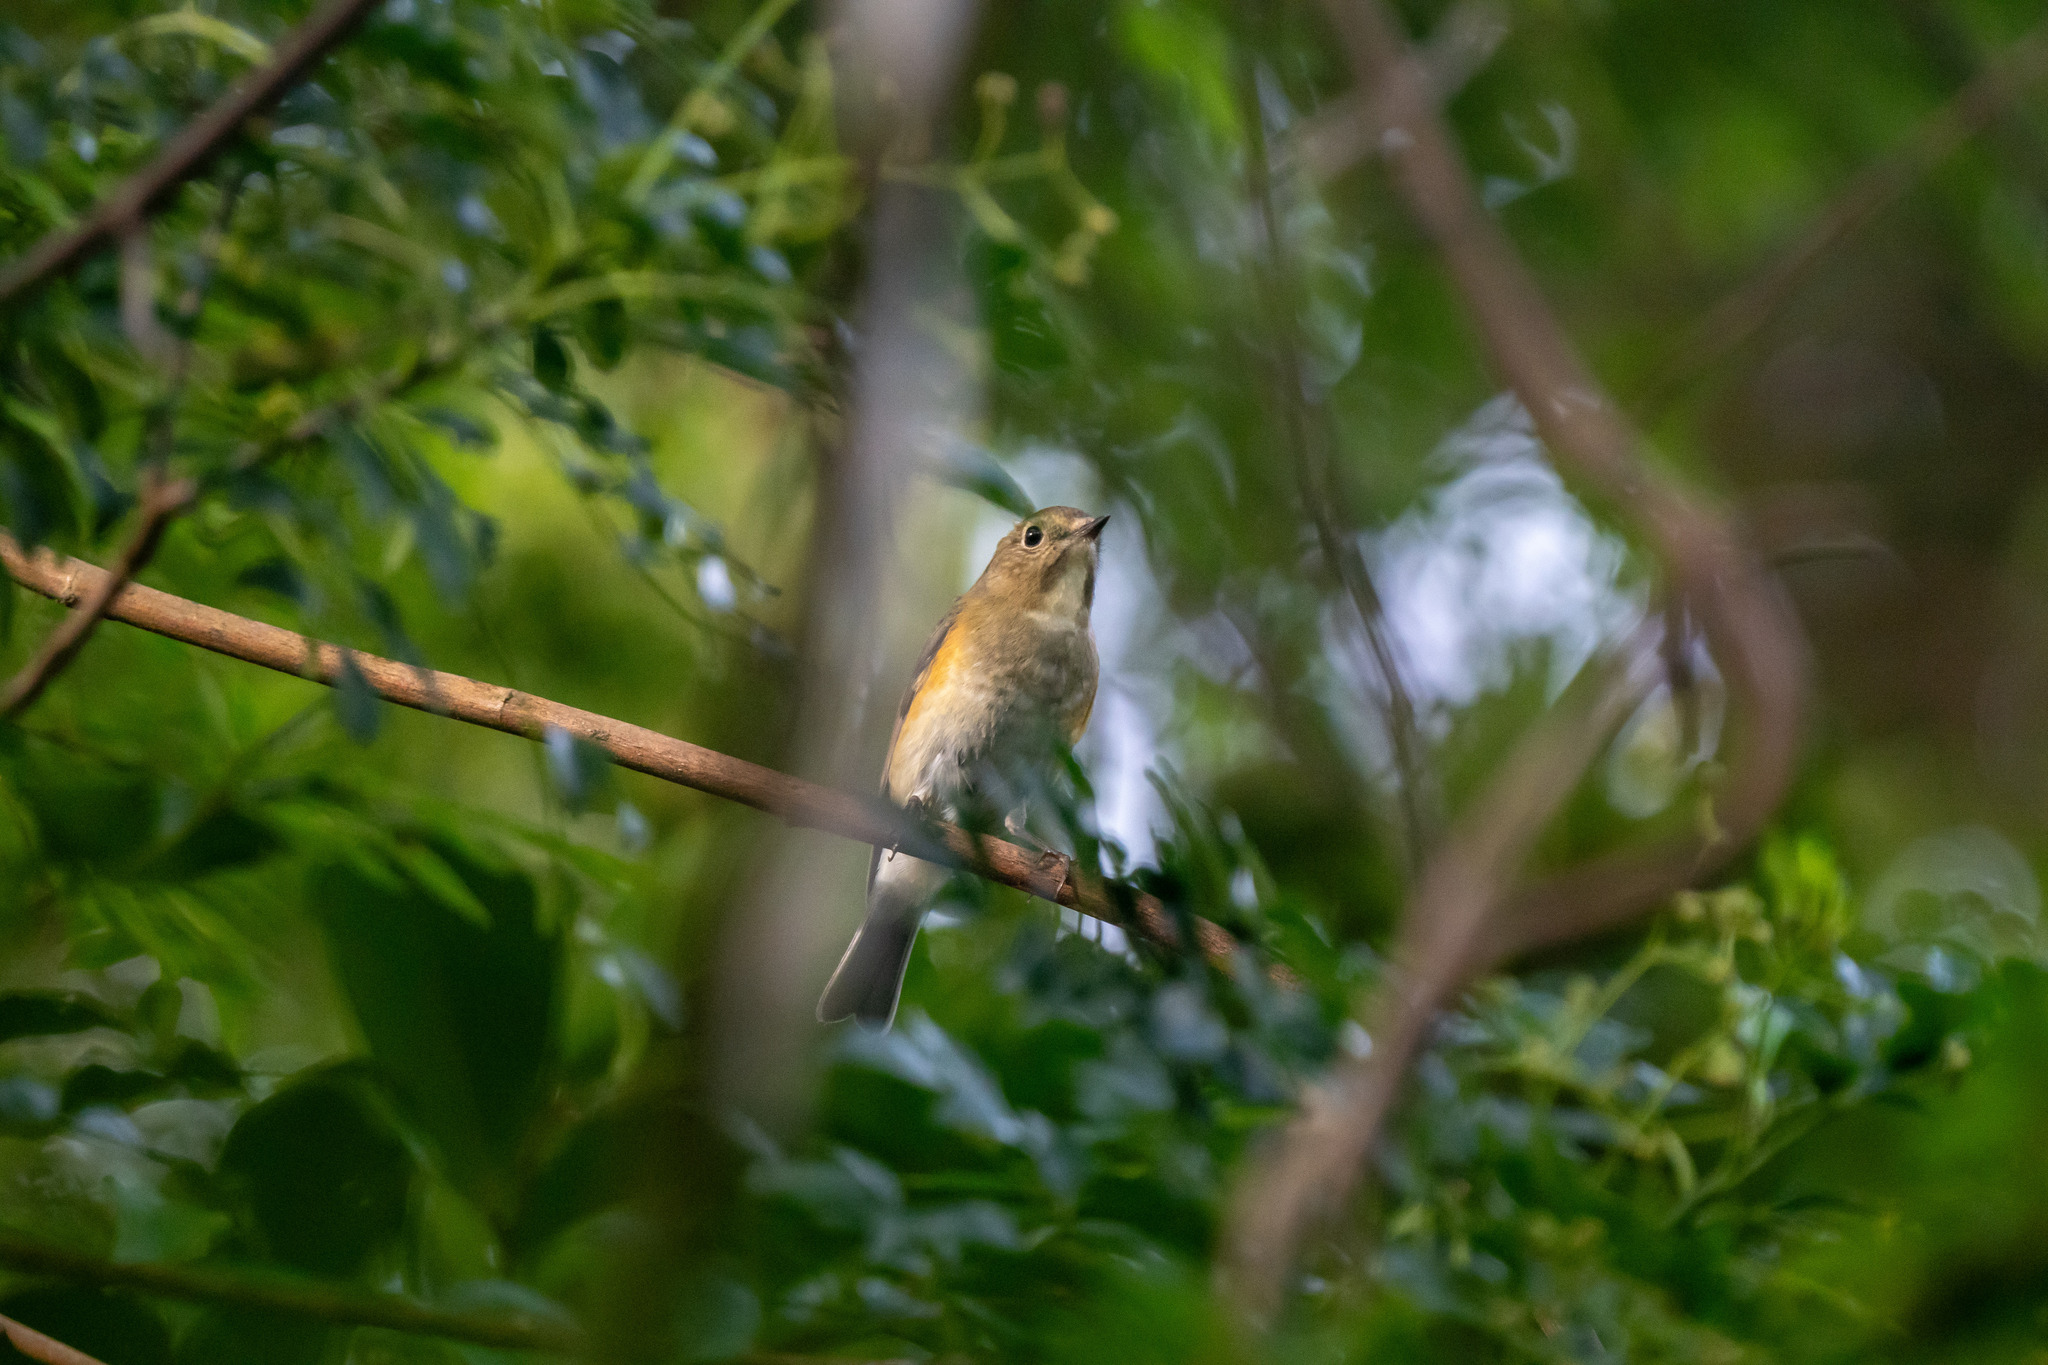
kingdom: Animalia
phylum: Chordata
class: Aves
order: Passeriformes
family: Muscicapidae
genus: Tarsiger
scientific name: Tarsiger cyanurus
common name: Red-flanked bluetail
